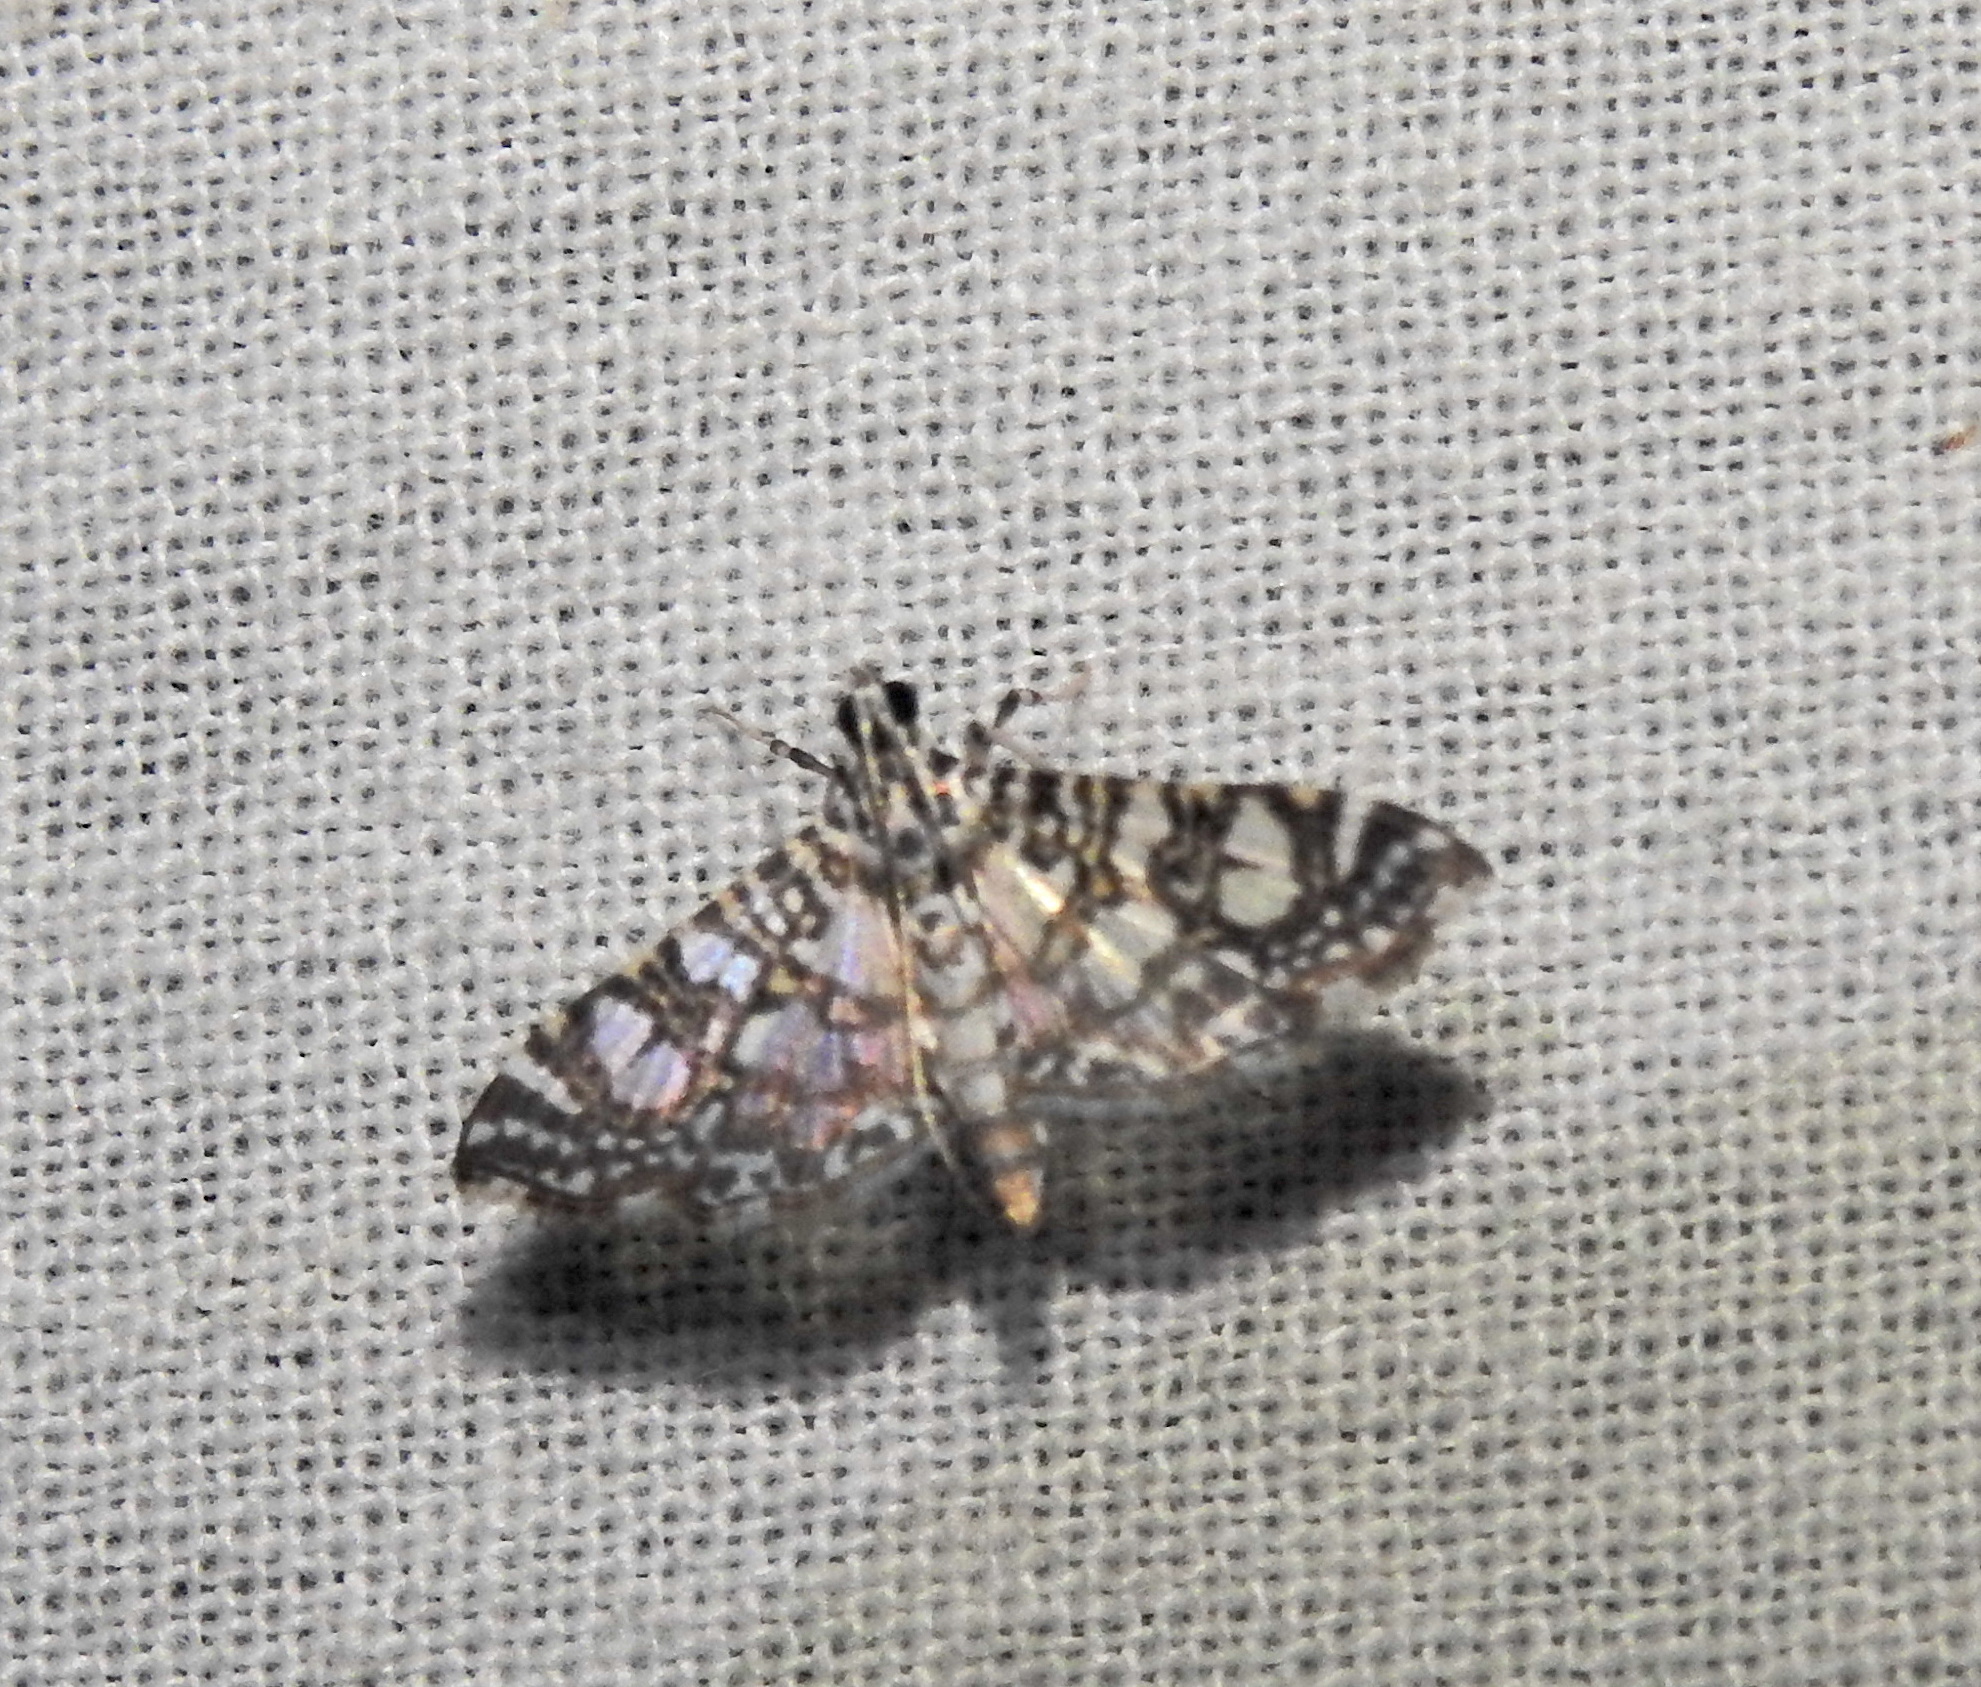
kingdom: Animalia
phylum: Arthropoda
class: Insecta
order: Lepidoptera
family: Crambidae
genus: Glyphodes
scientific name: Glyphodes onychinalis
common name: Swan plant moth
